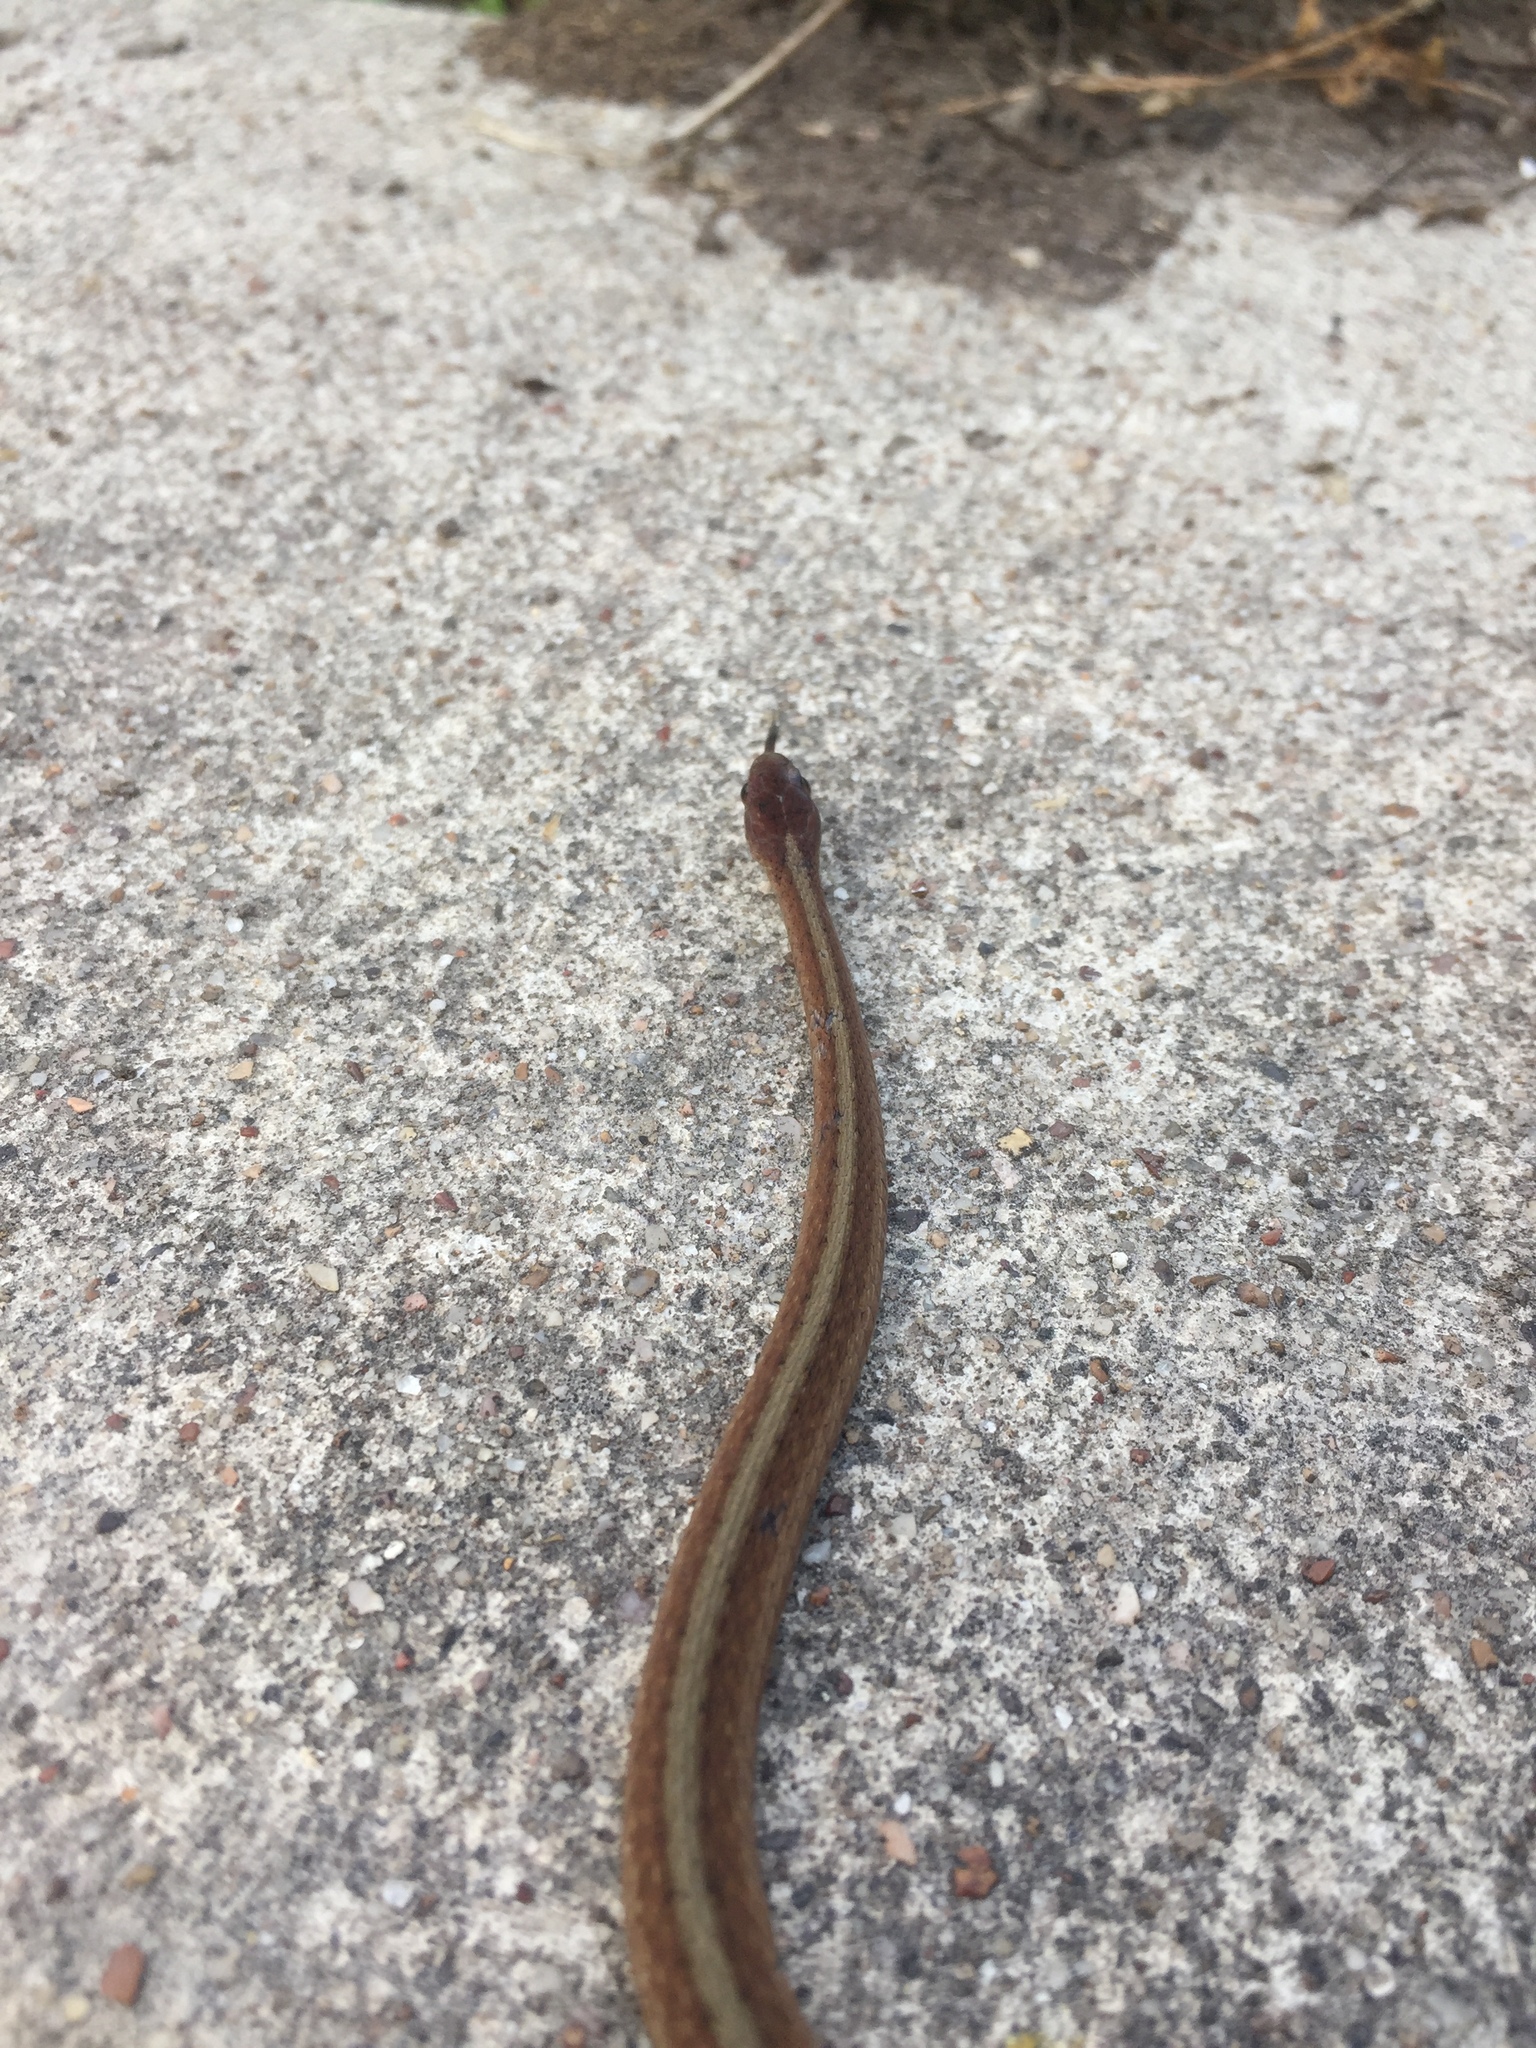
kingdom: Animalia
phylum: Chordata
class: Squamata
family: Colubridae
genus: Storeria
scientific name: Storeria dekayi
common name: (dekay’s) brown snake
